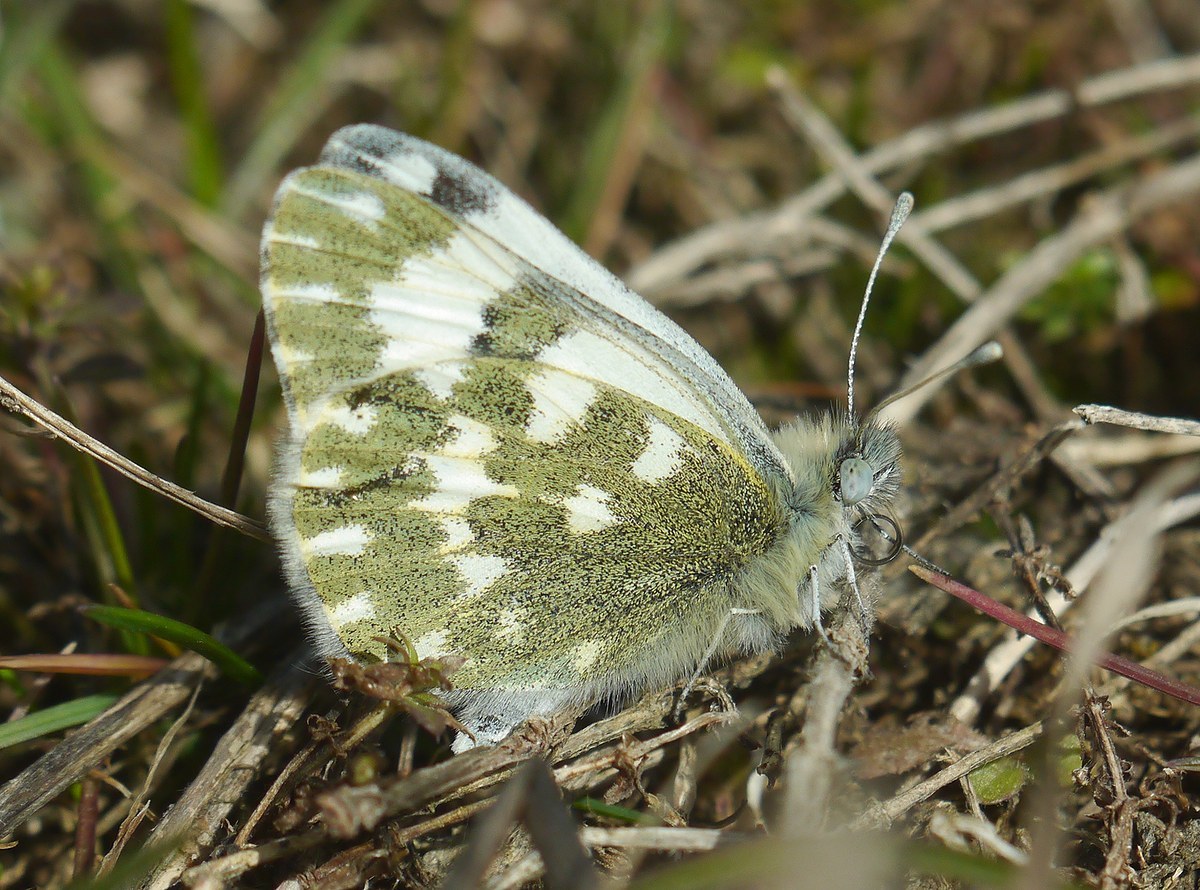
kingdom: Animalia
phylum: Arthropoda
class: Insecta
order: Lepidoptera
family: Pieridae
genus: Pontia
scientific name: Pontia edusa
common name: Eastern bath white
